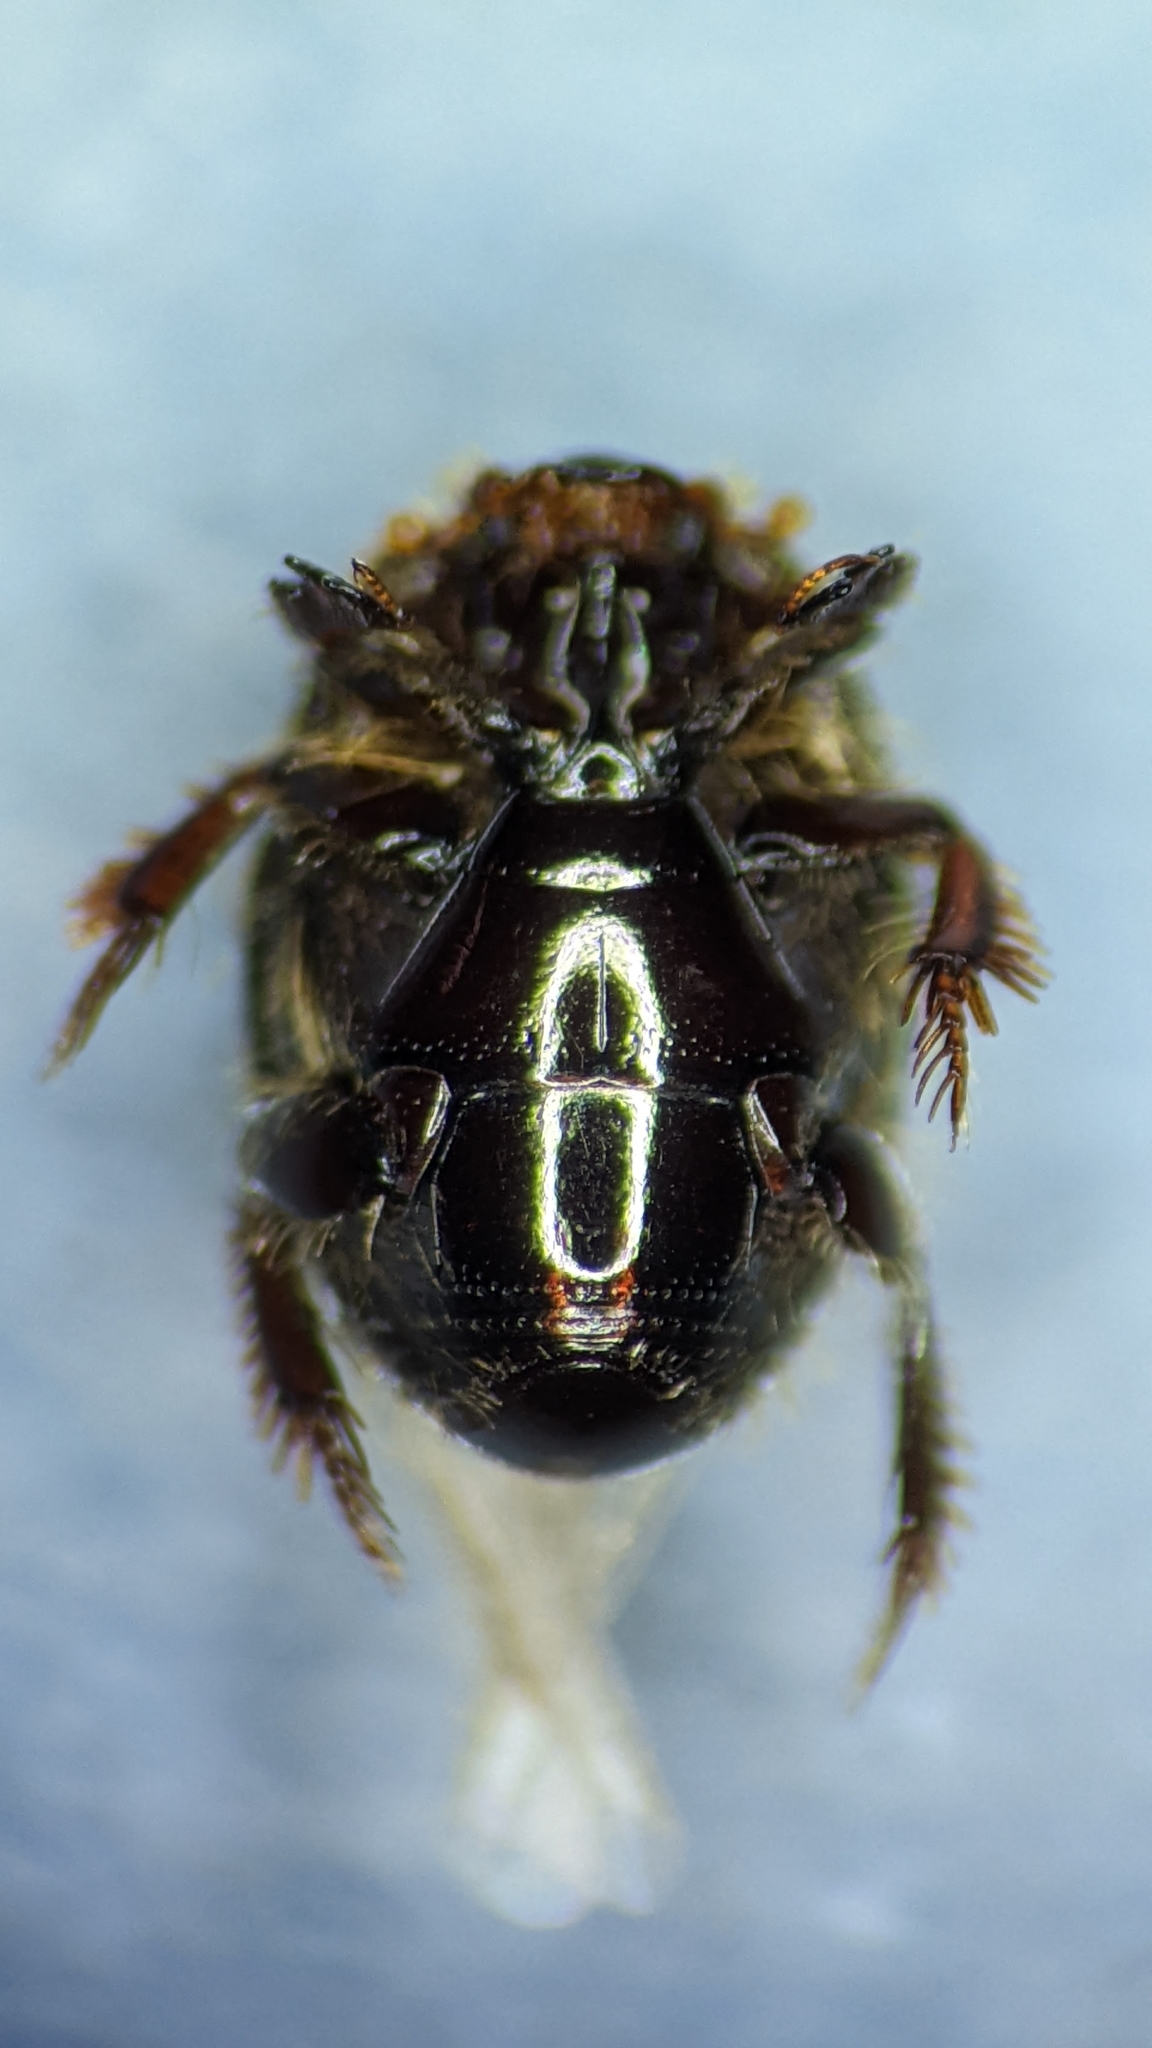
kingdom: Animalia
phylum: Arthropoda
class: Insecta
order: Coleoptera
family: Histeridae
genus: Xenonychus
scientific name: Xenonychus tridens
